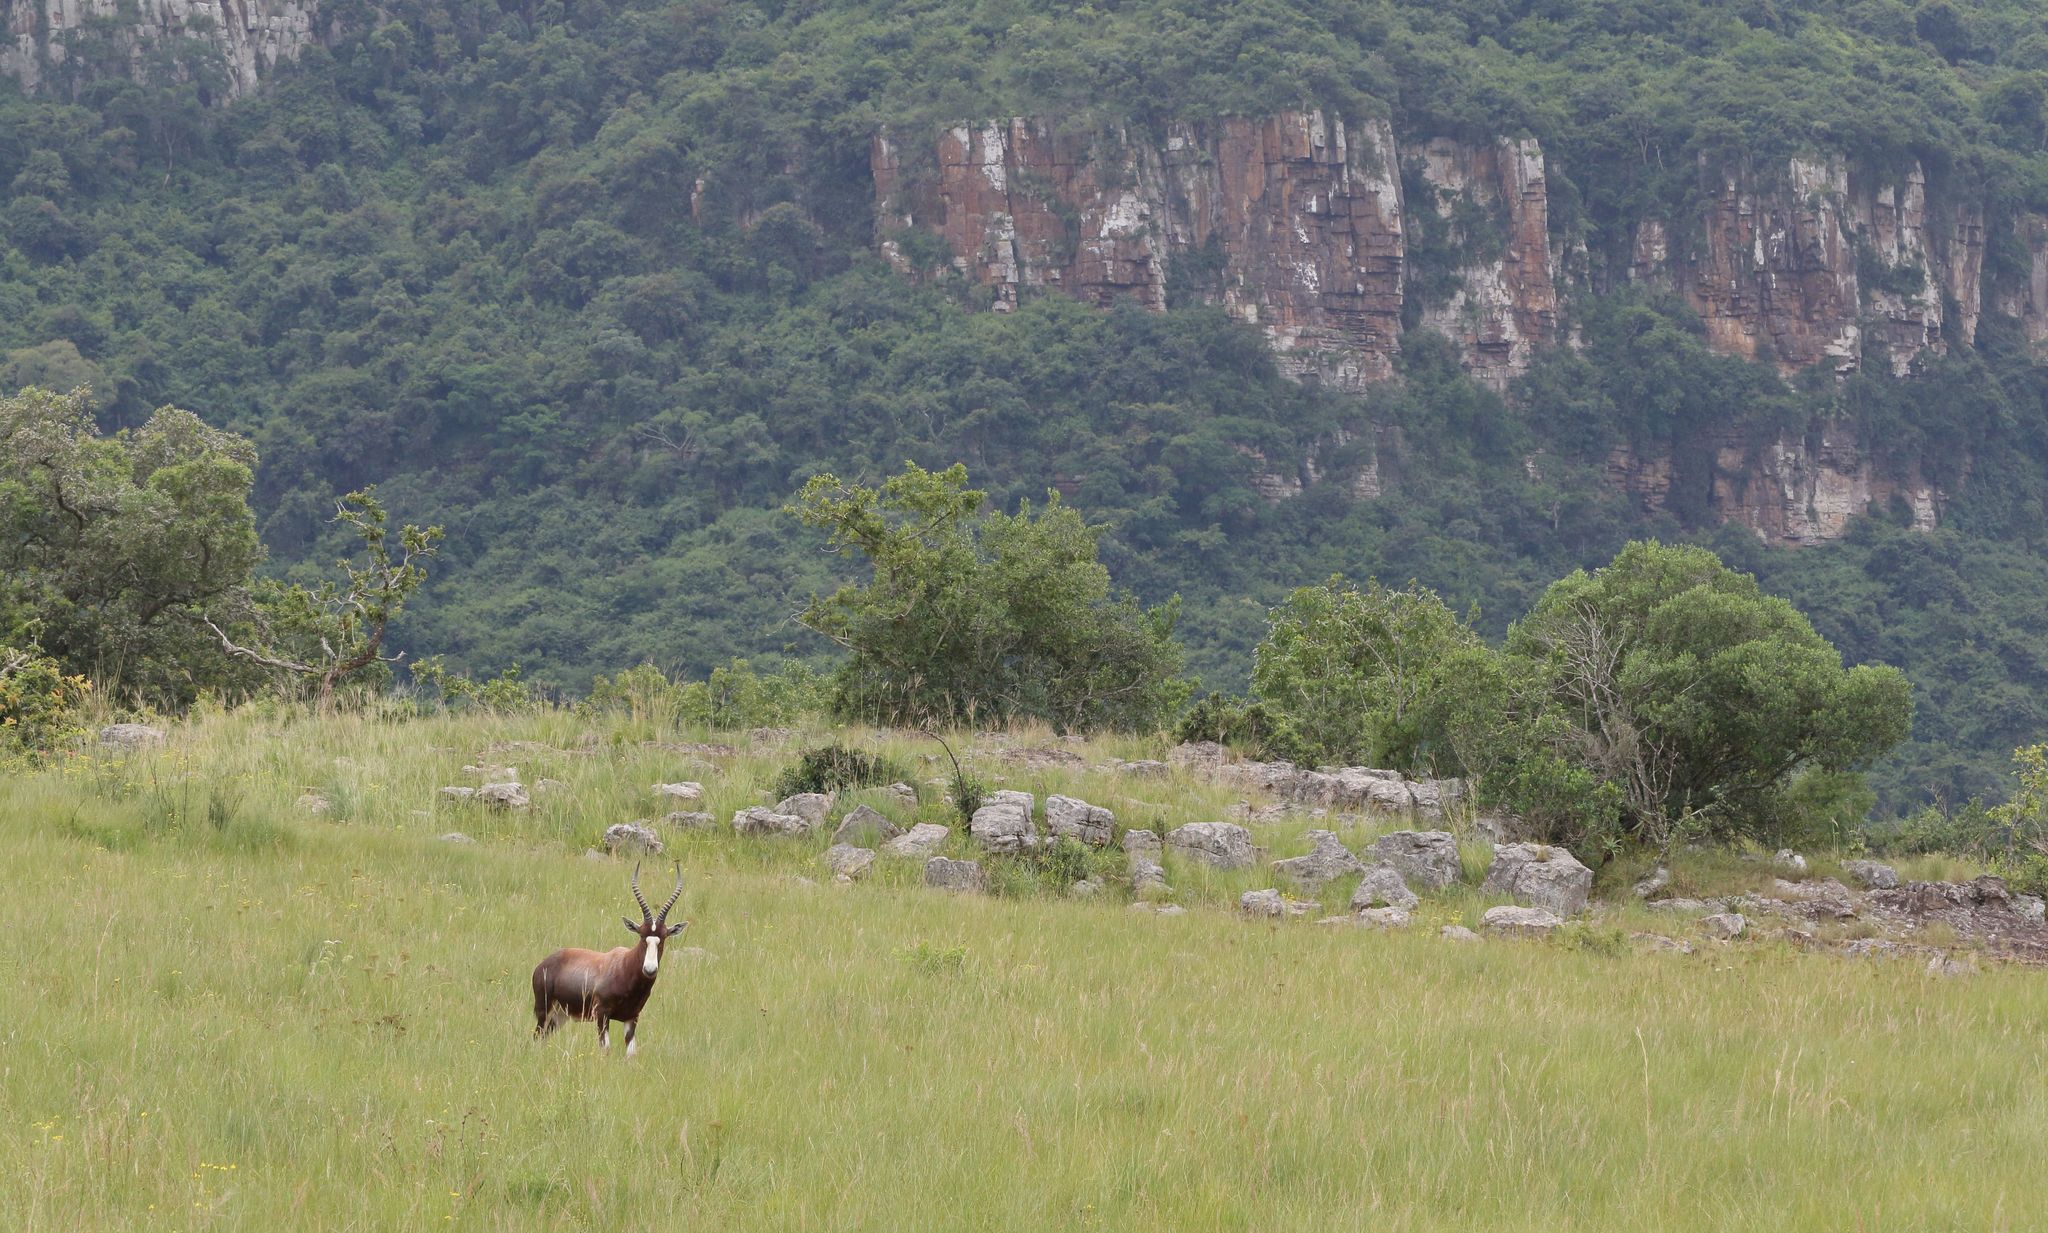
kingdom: Animalia
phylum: Chordata
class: Mammalia
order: Artiodactyla
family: Bovidae
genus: Damaliscus
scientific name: Damaliscus pygargus
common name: Bontebok
